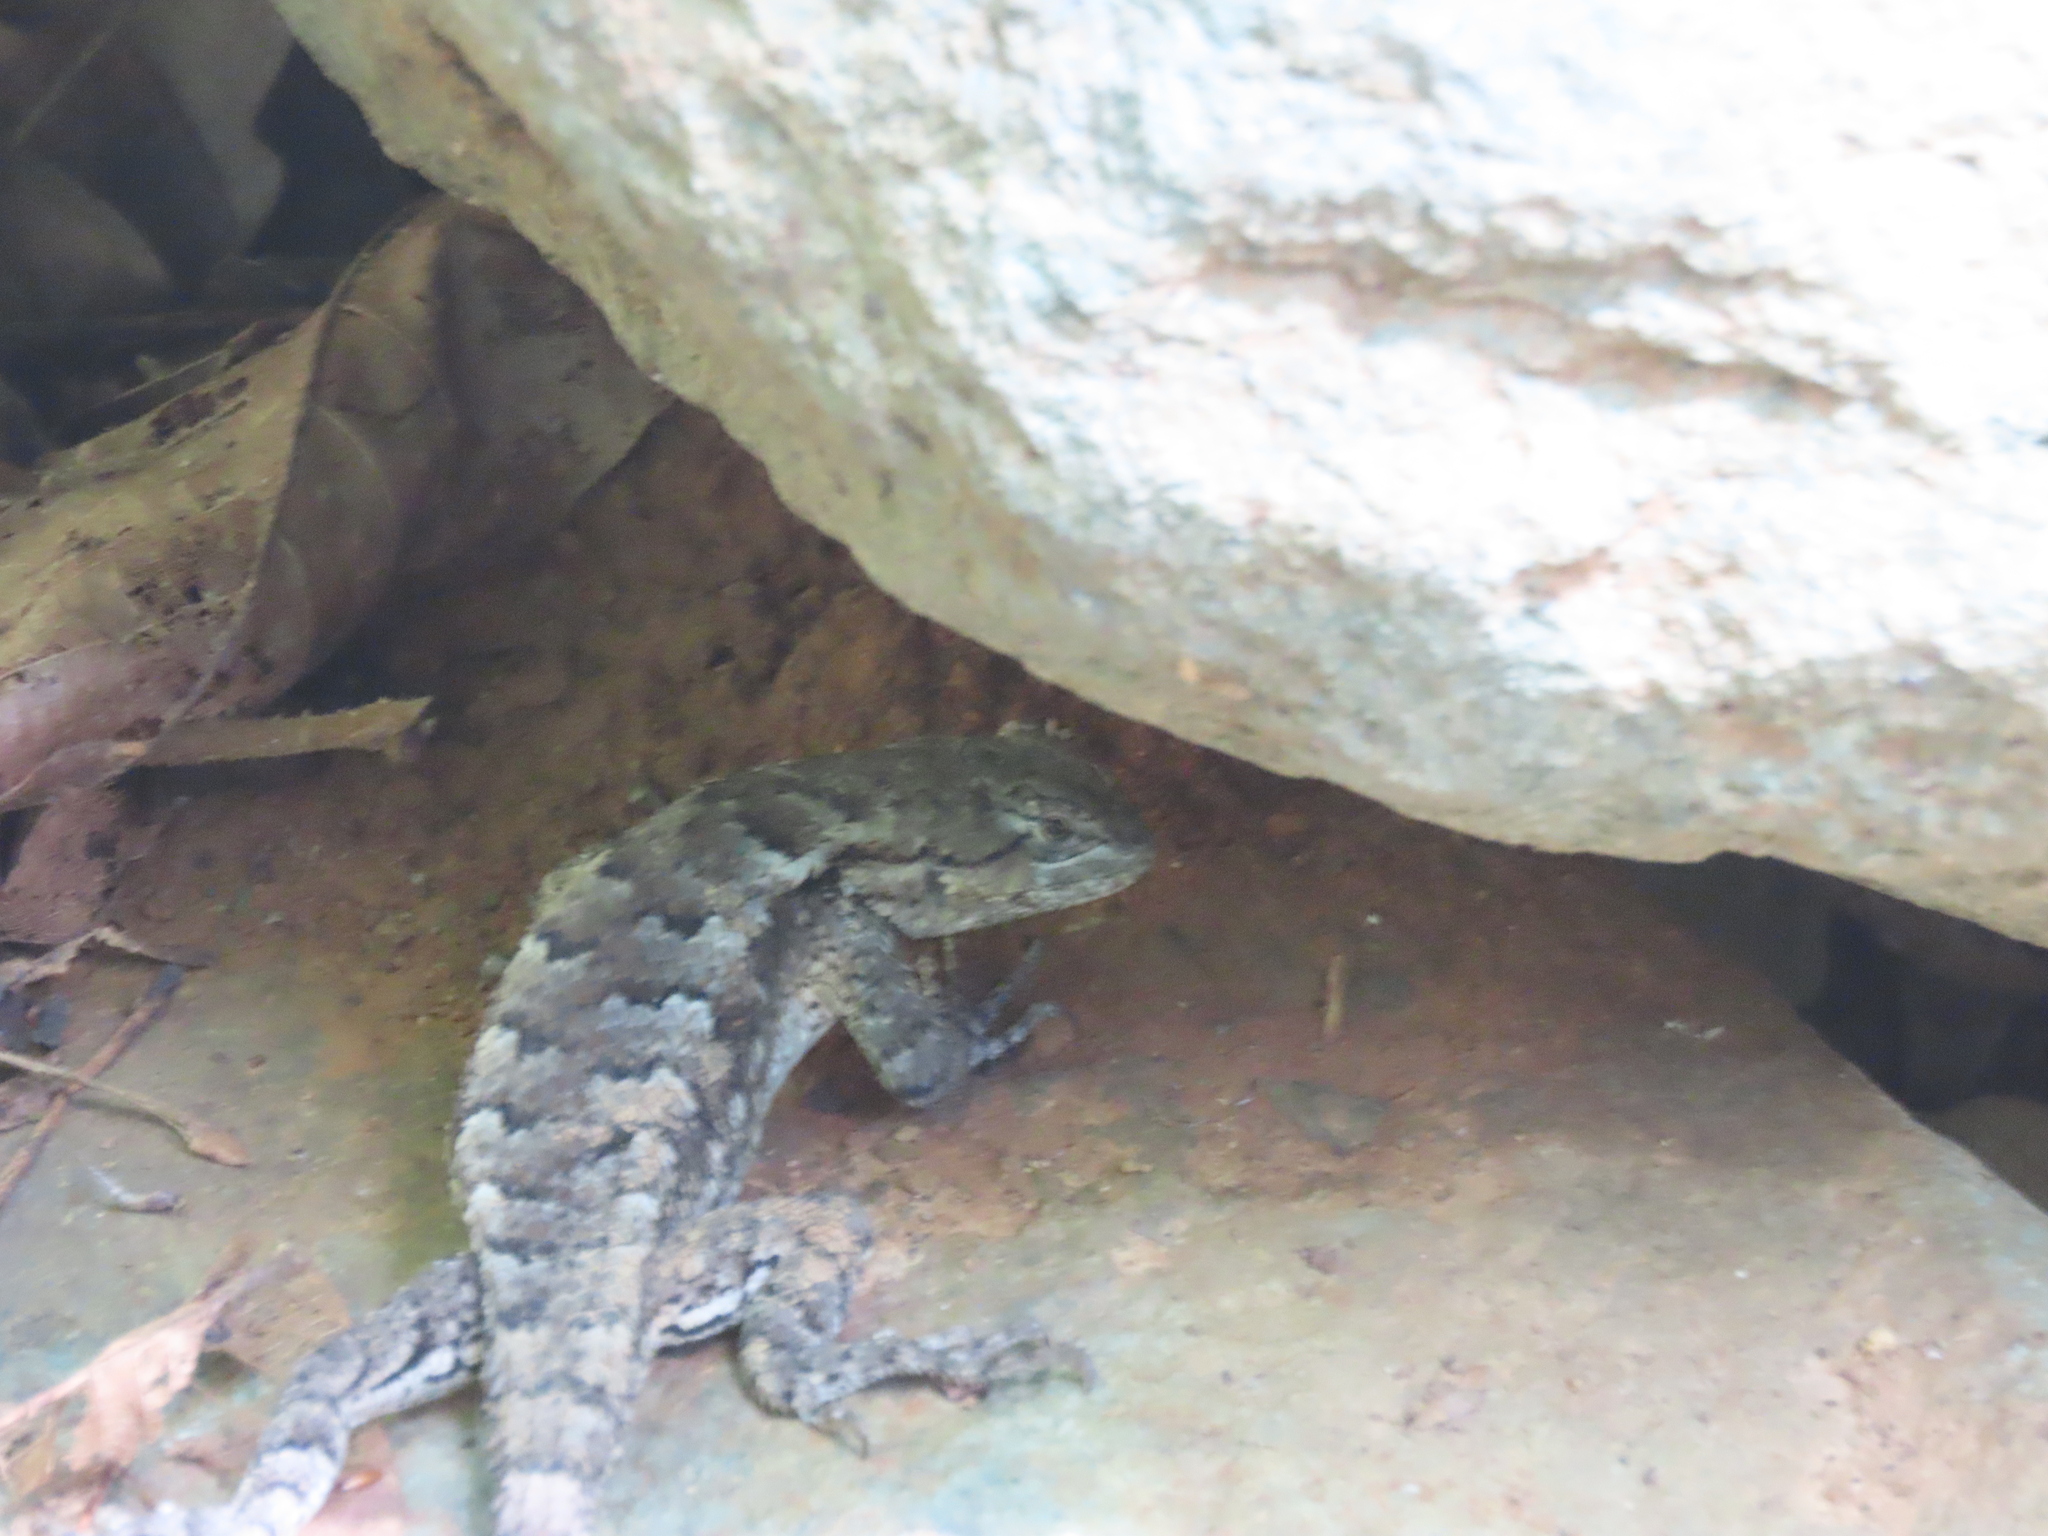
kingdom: Animalia
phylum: Chordata
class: Squamata
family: Phrynosomatidae
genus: Sceloporus
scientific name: Sceloporus undulatus
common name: Eastern fence lizard
